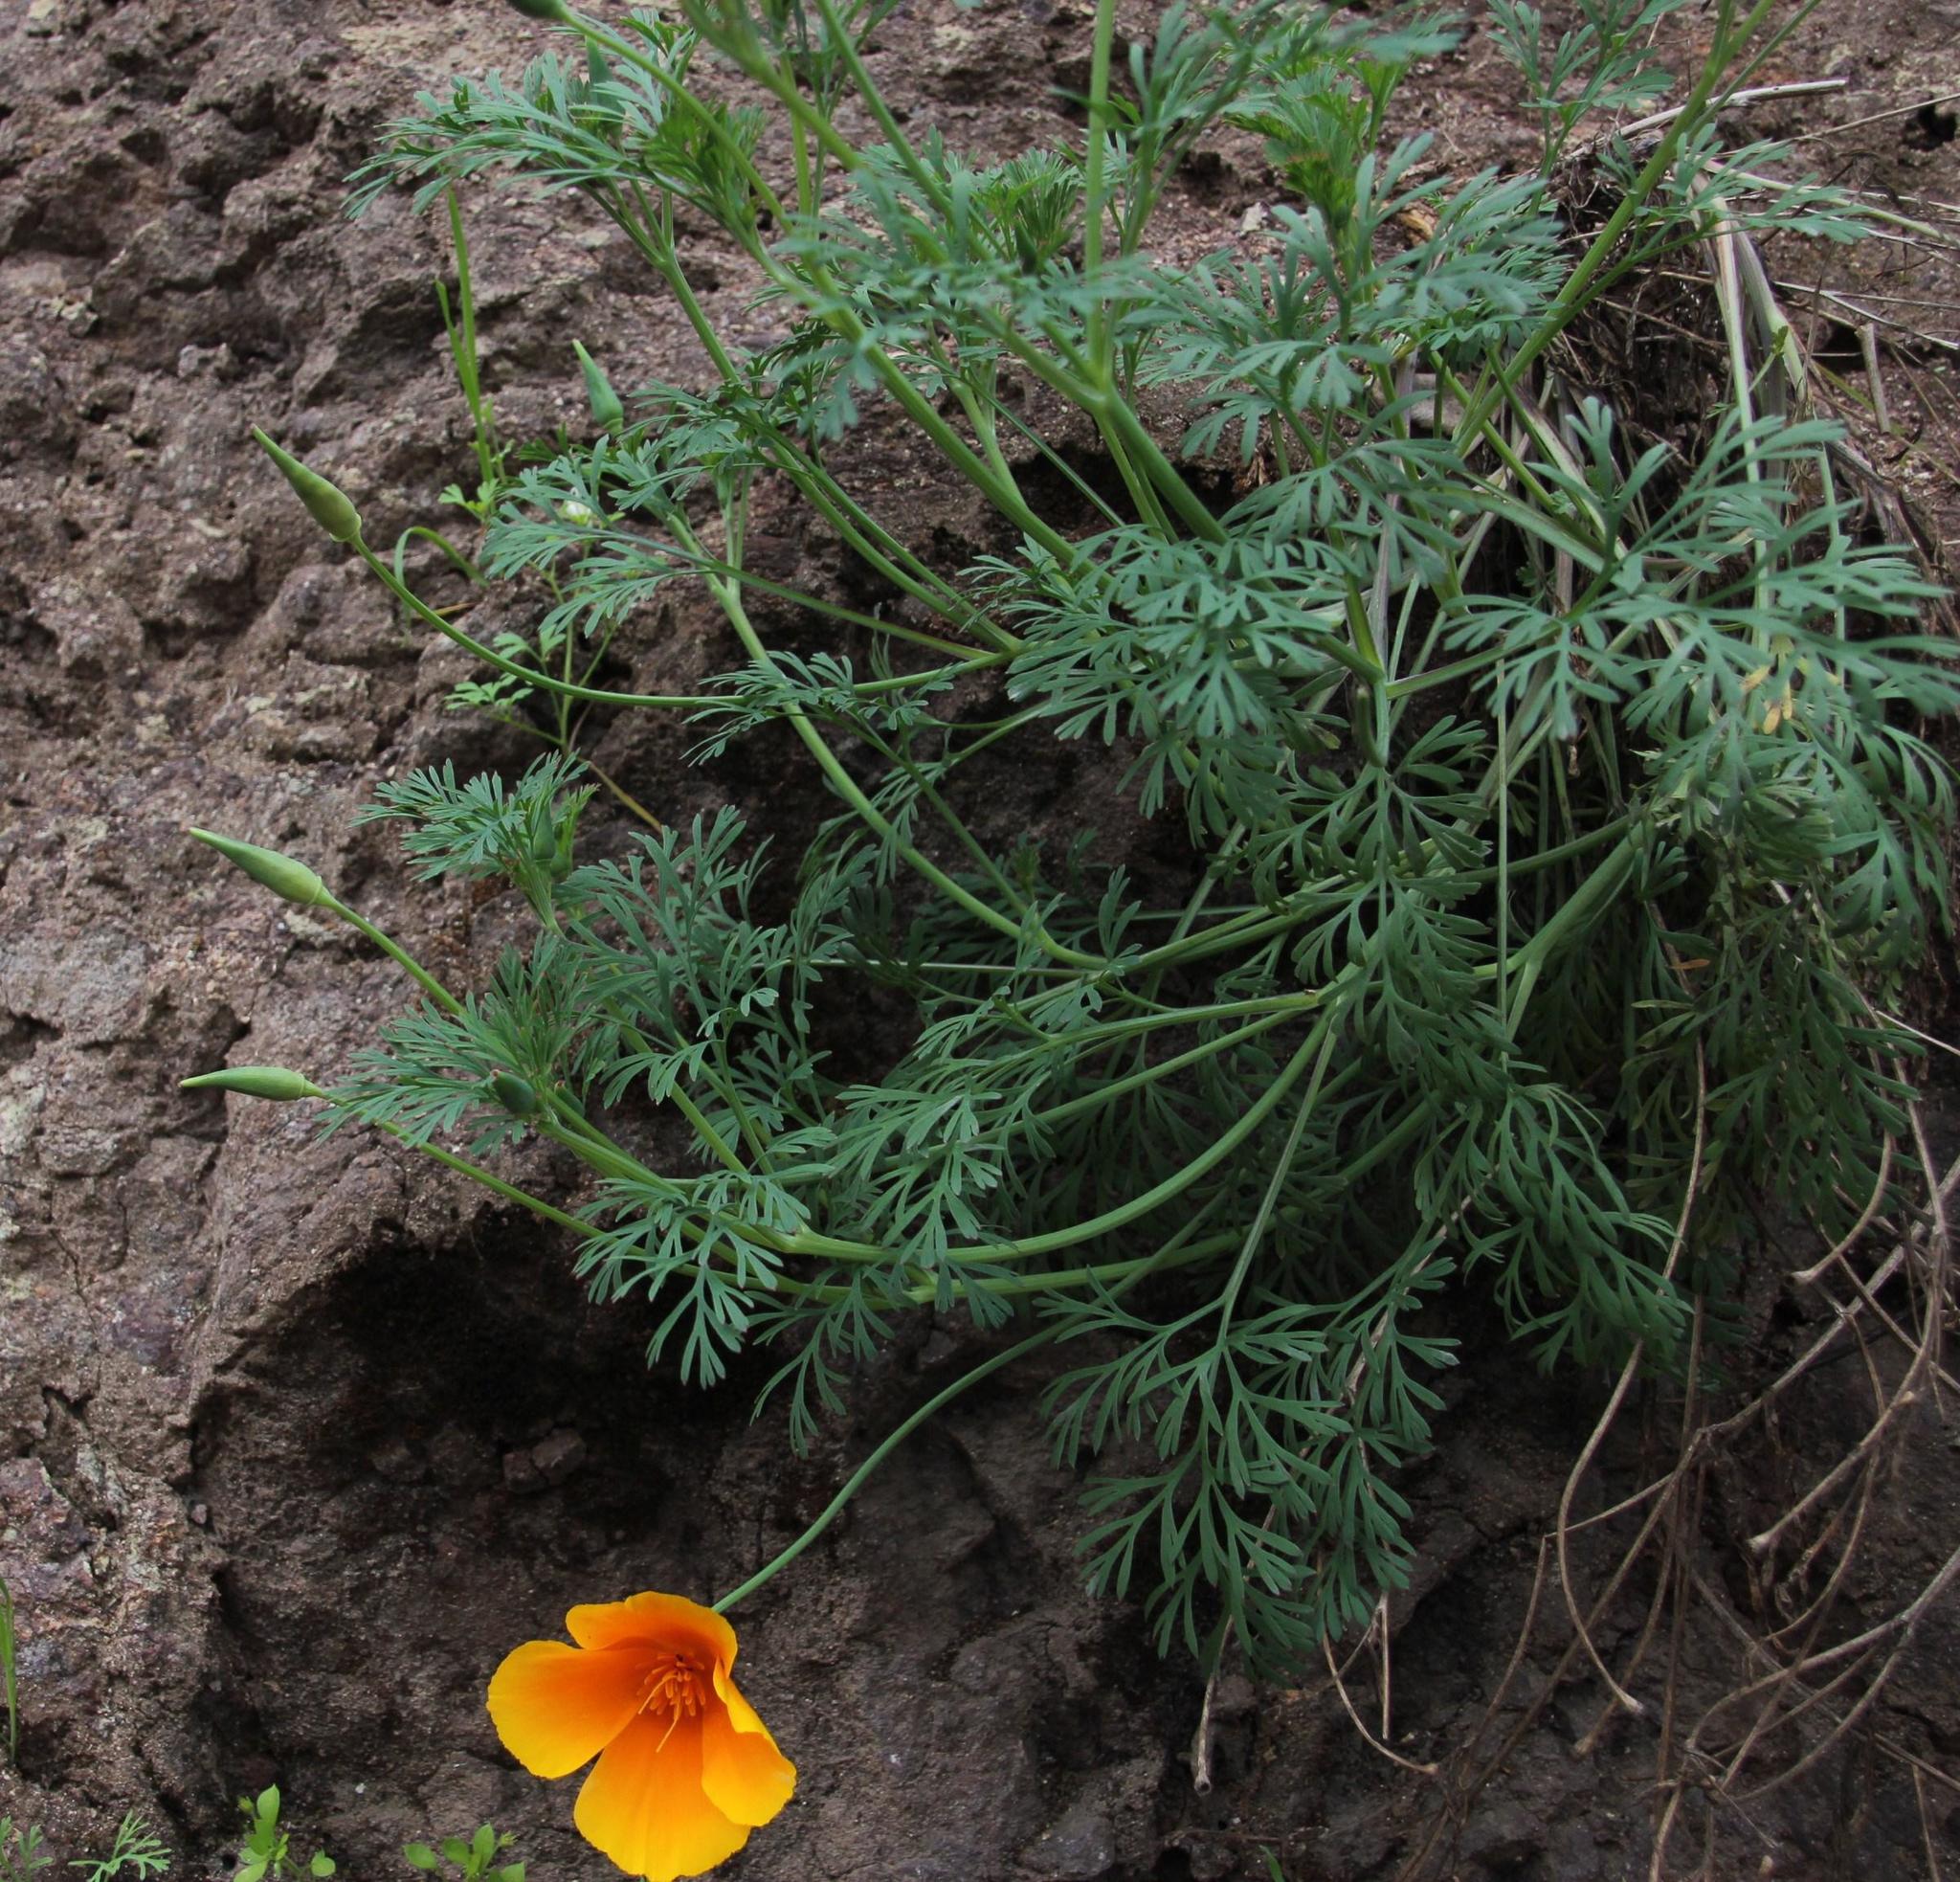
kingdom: Plantae
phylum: Tracheophyta
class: Magnoliopsida
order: Ranunculales
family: Papaveraceae
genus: Eschscholzia
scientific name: Eschscholzia californica
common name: California poppy
